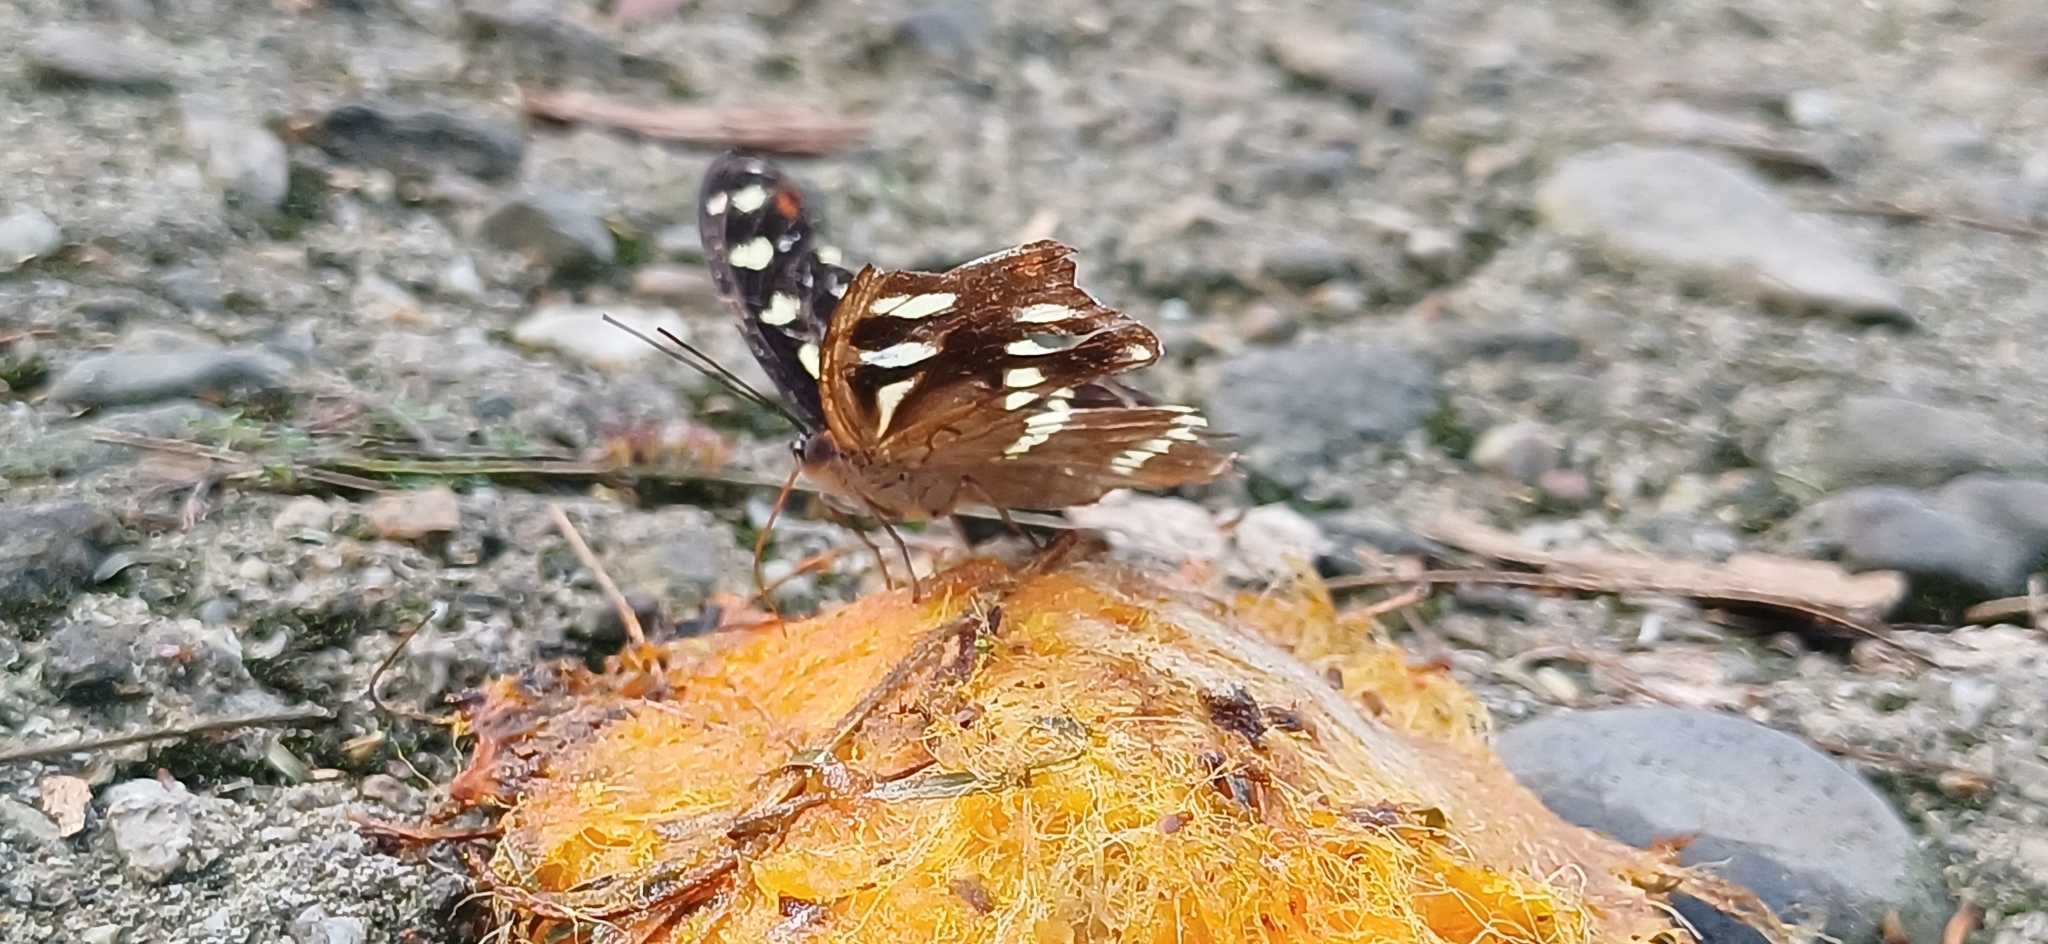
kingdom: Animalia
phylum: Arthropoda
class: Insecta
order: Lepidoptera
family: Nymphalidae
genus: Catonephele
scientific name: Catonephele acontius
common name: Unspotted firewing
